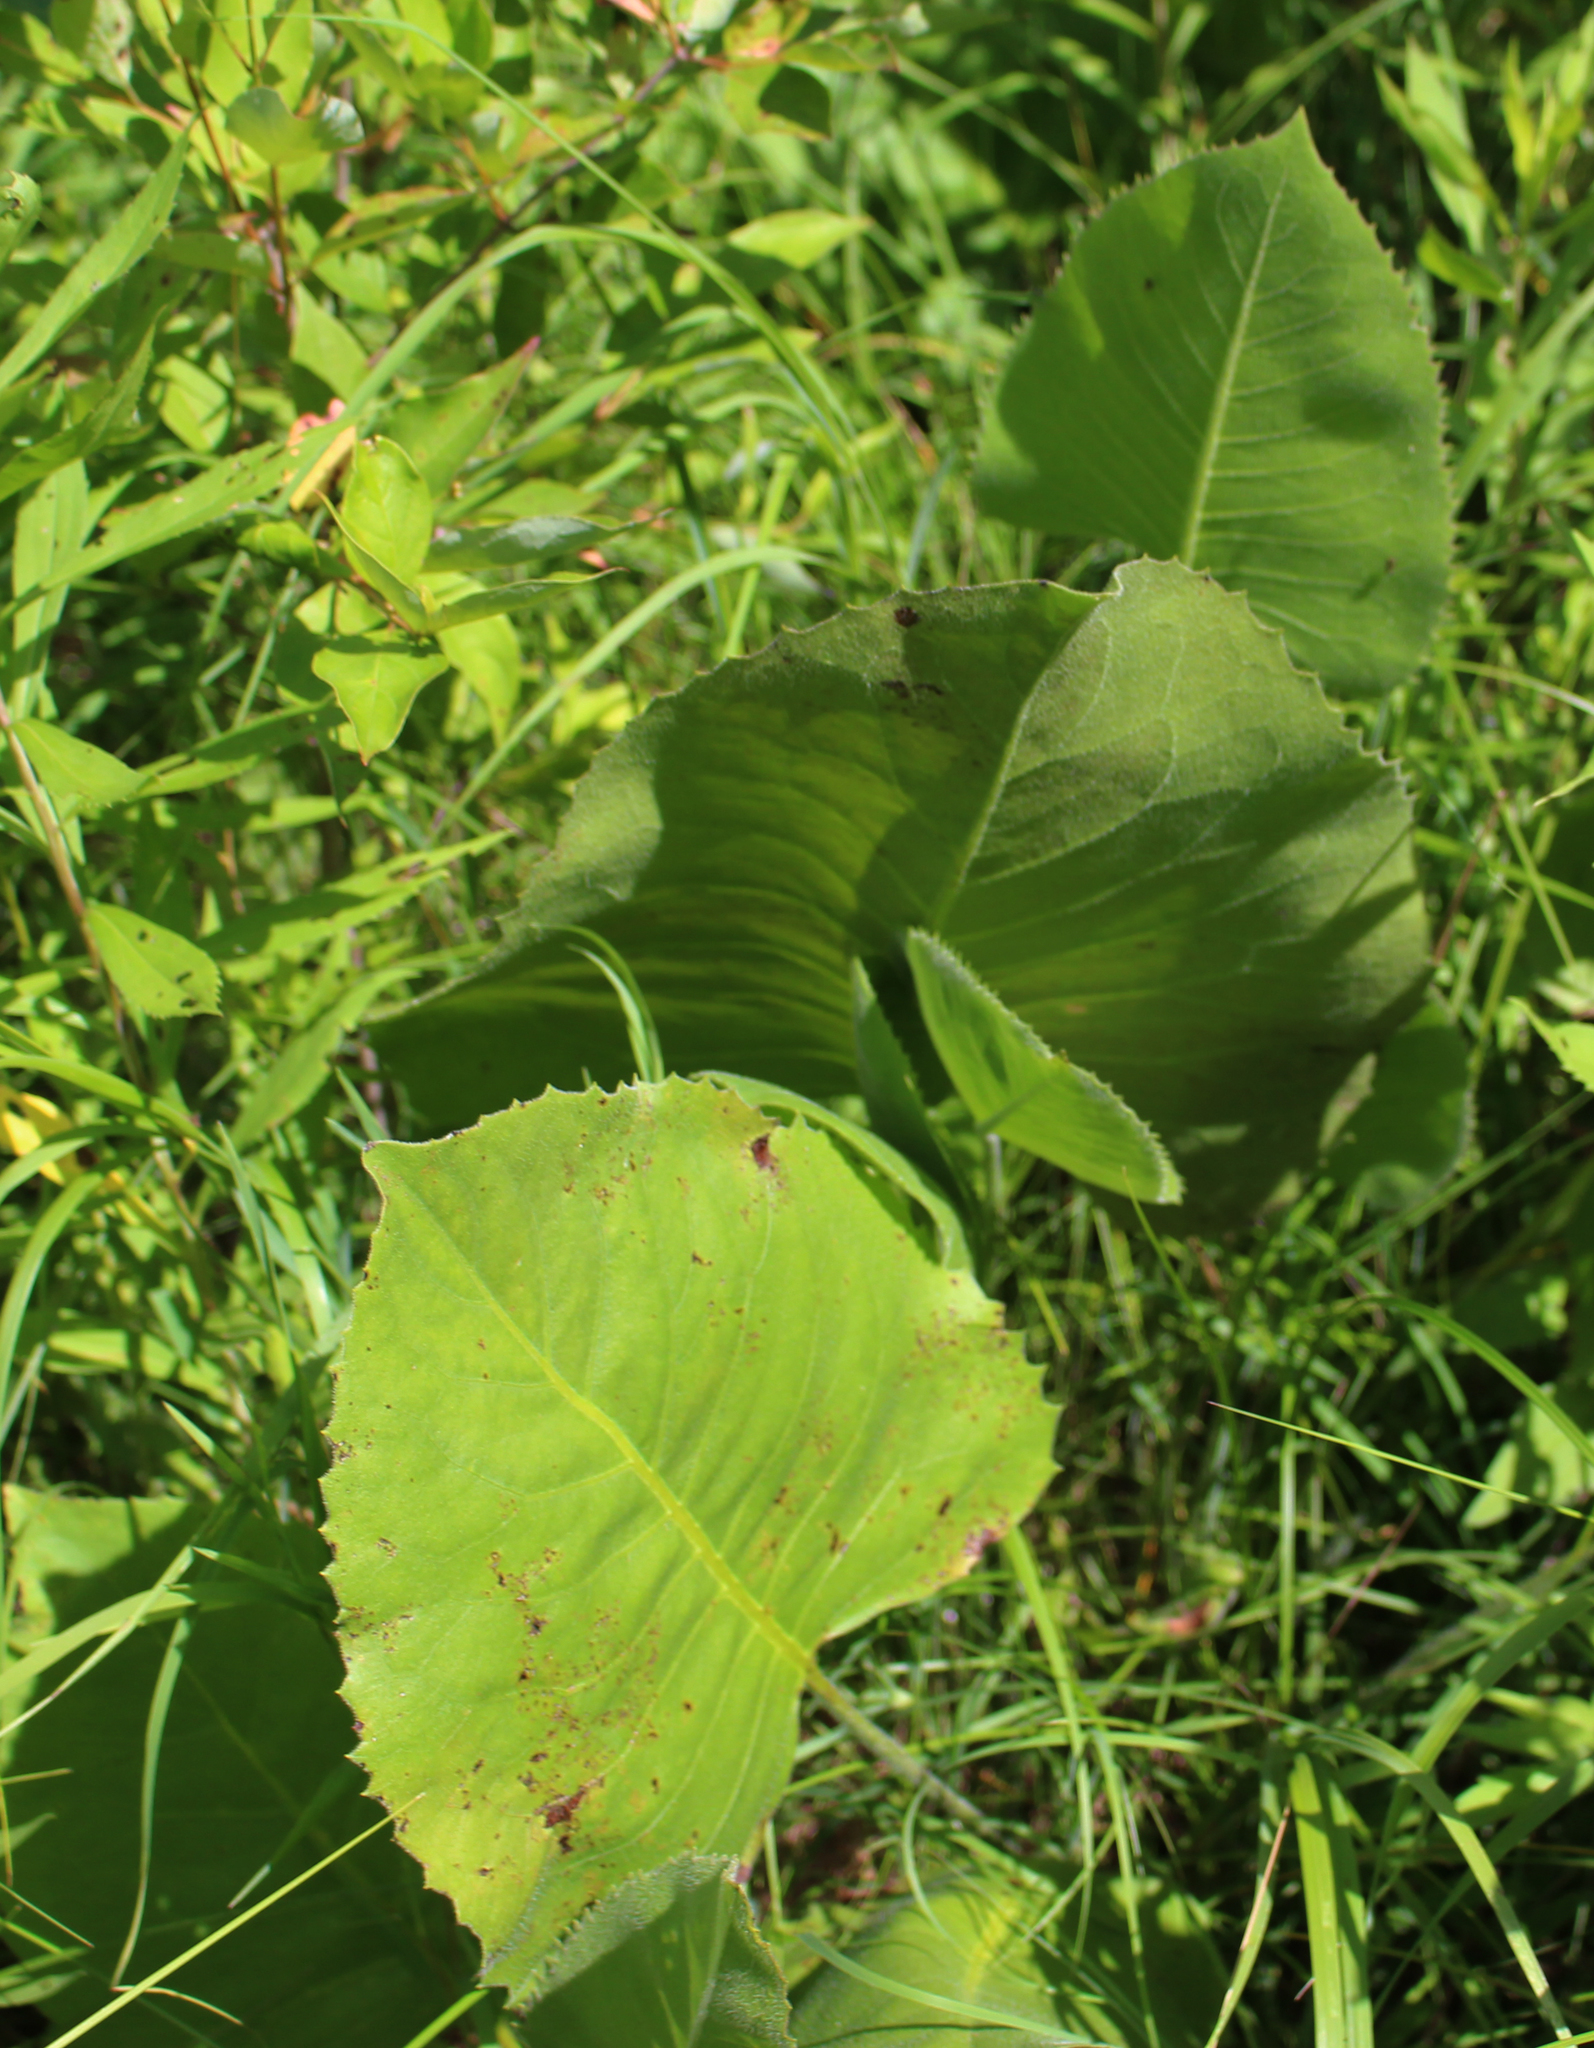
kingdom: Plantae
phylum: Tracheophyta
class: Magnoliopsida
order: Asterales
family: Asteraceae
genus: Silphium
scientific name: Silphium terebinthinaceum
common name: Basal-leaf rosinweed
